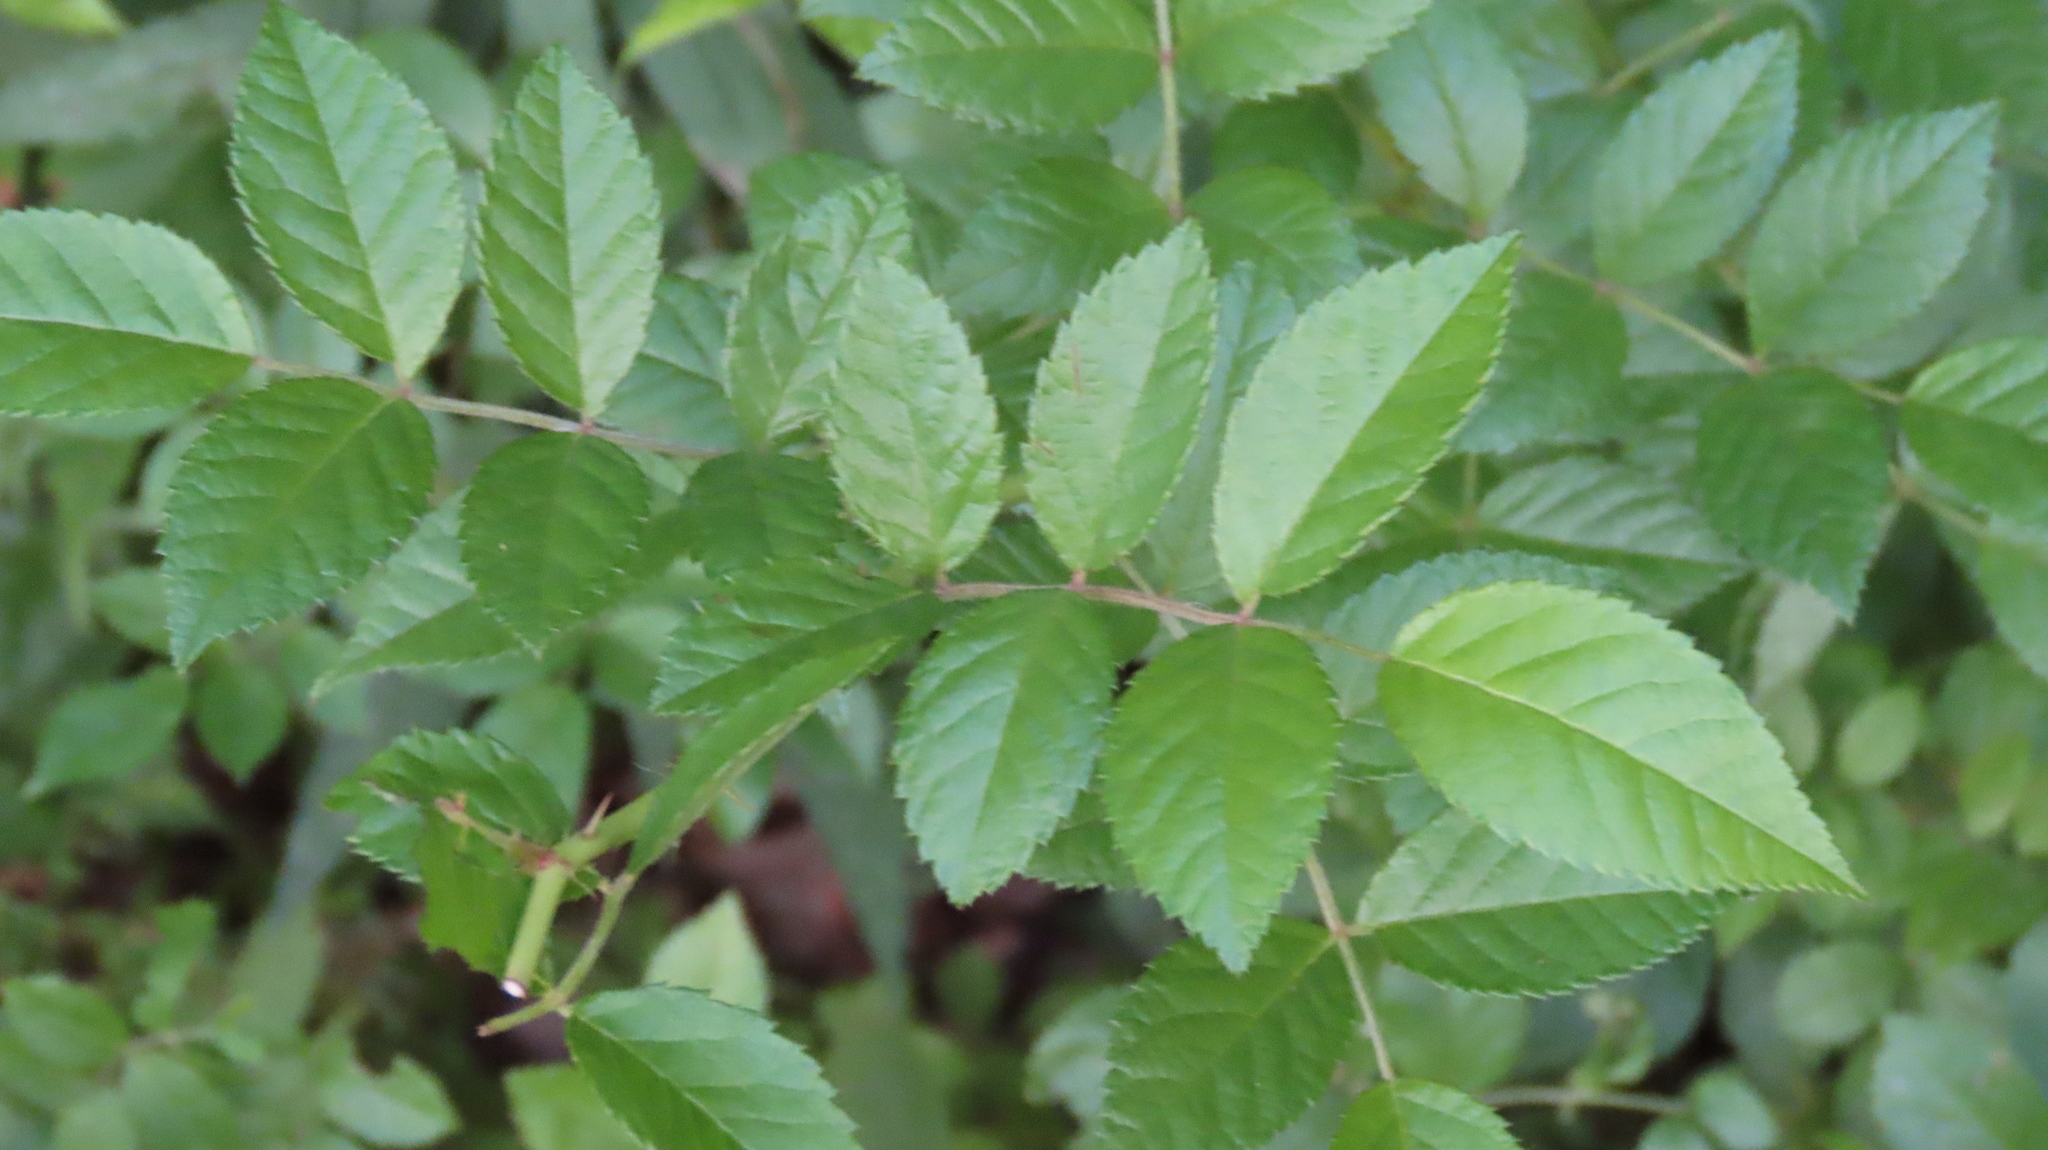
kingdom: Plantae
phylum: Tracheophyta
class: Magnoliopsida
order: Rosales
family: Rosaceae
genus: Rosa
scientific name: Rosa multiflora
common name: Multiflora rose
